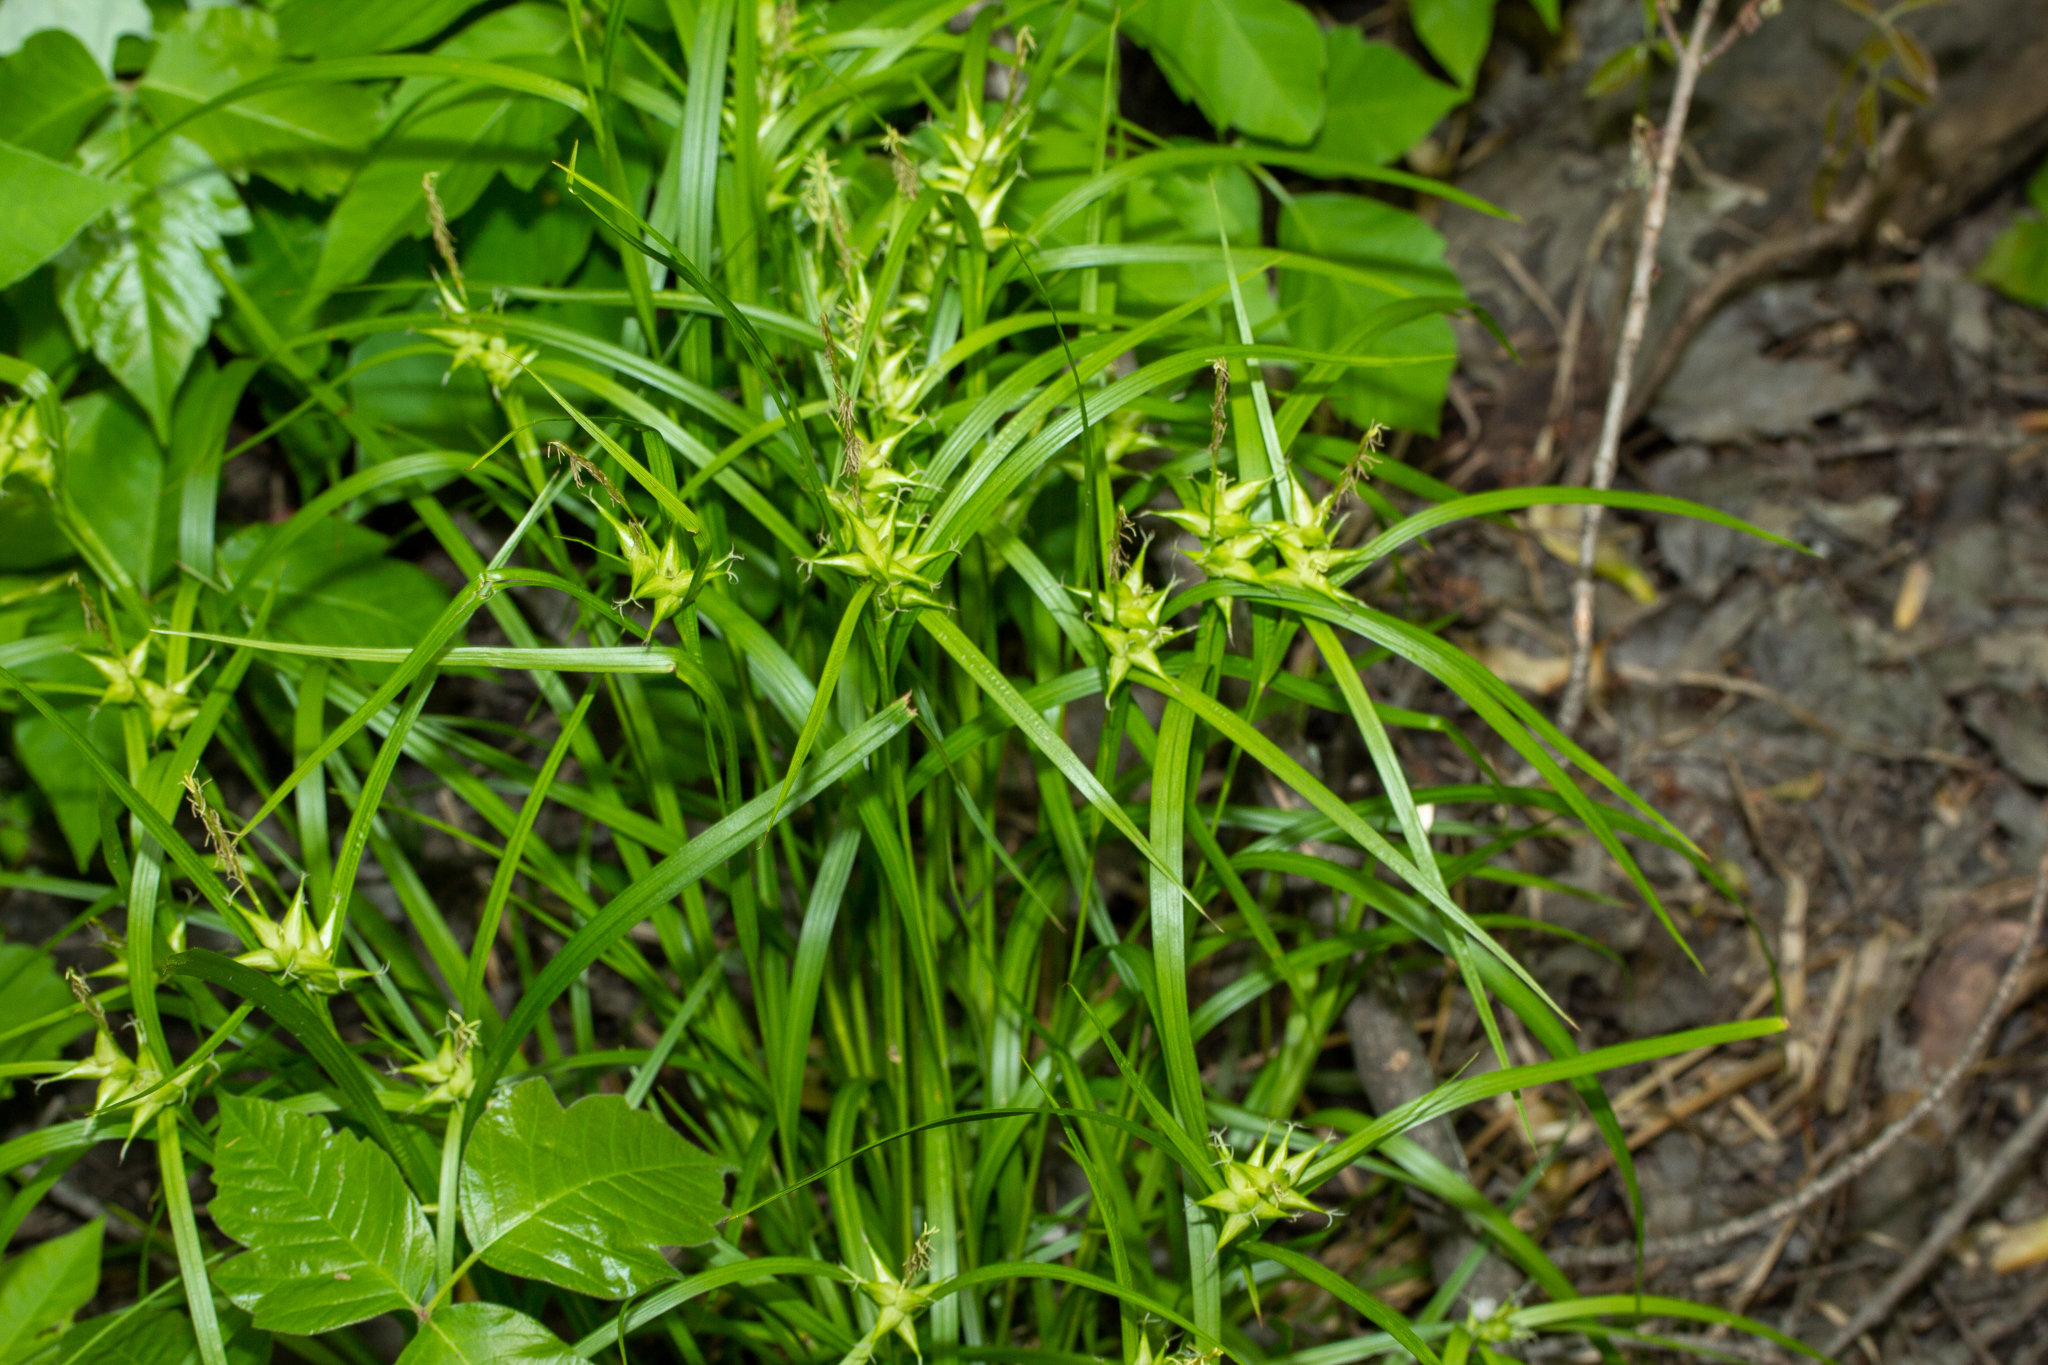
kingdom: Plantae
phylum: Tracheophyta
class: Liliopsida
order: Poales
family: Cyperaceae
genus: Carex
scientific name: Carex intumescens
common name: Greater bladder sedge
